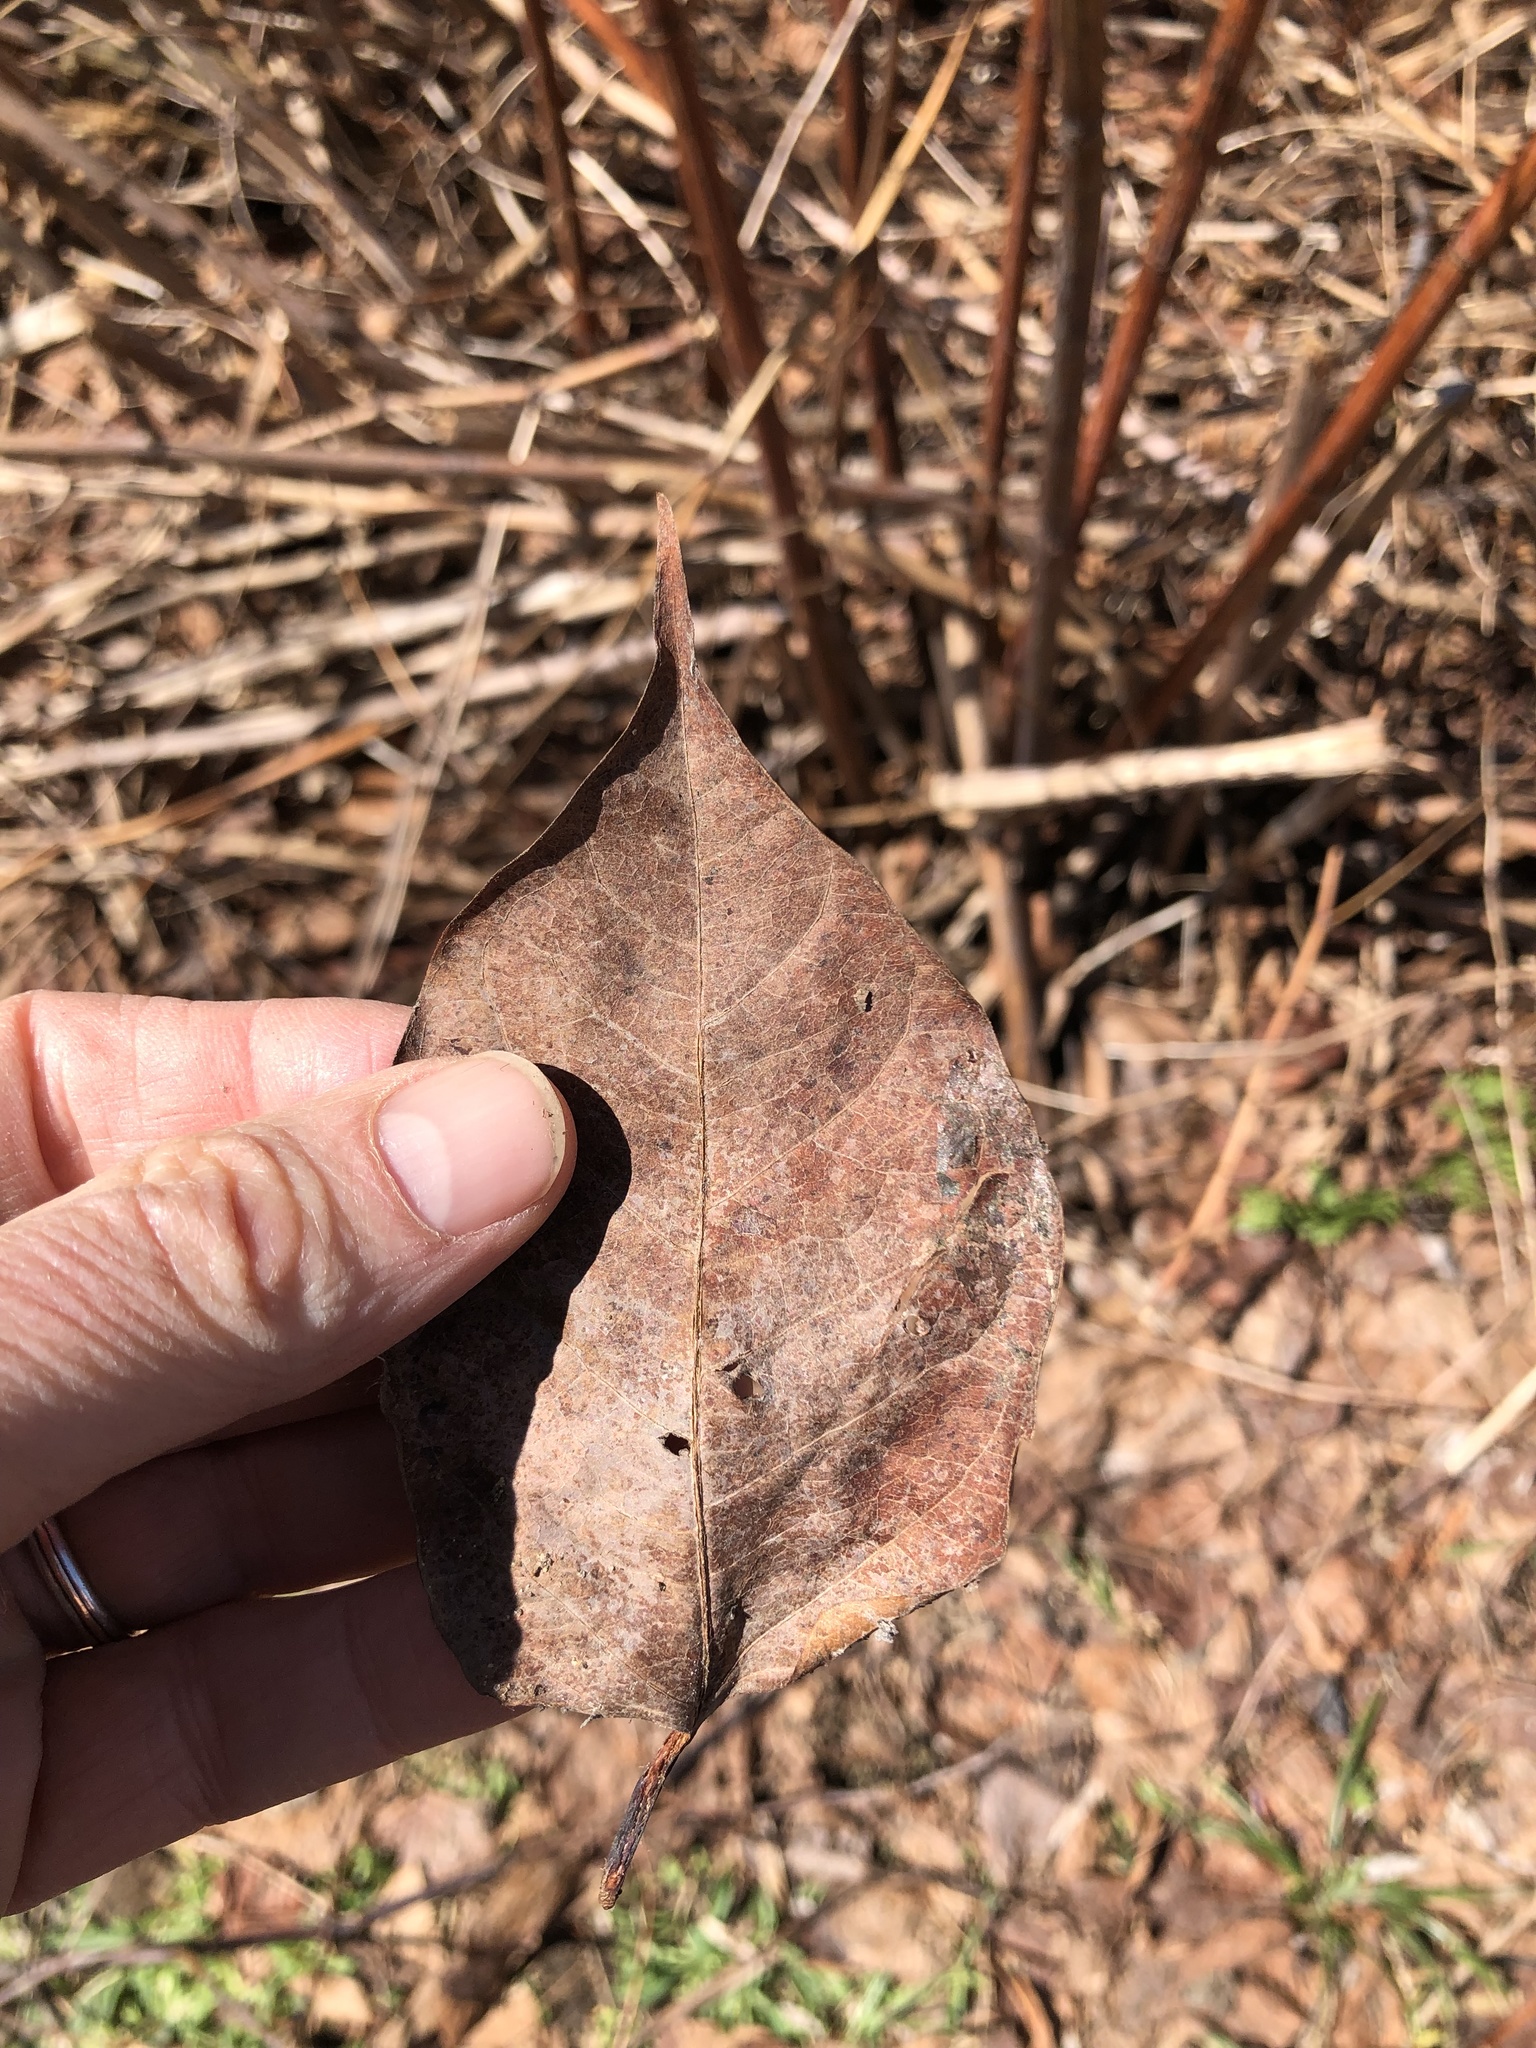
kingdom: Plantae
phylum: Tracheophyta
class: Magnoliopsida
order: Caryophyllales
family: Polygonaceae
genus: Reynoutria
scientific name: Reynoutria japonica
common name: Japanese knotweed
